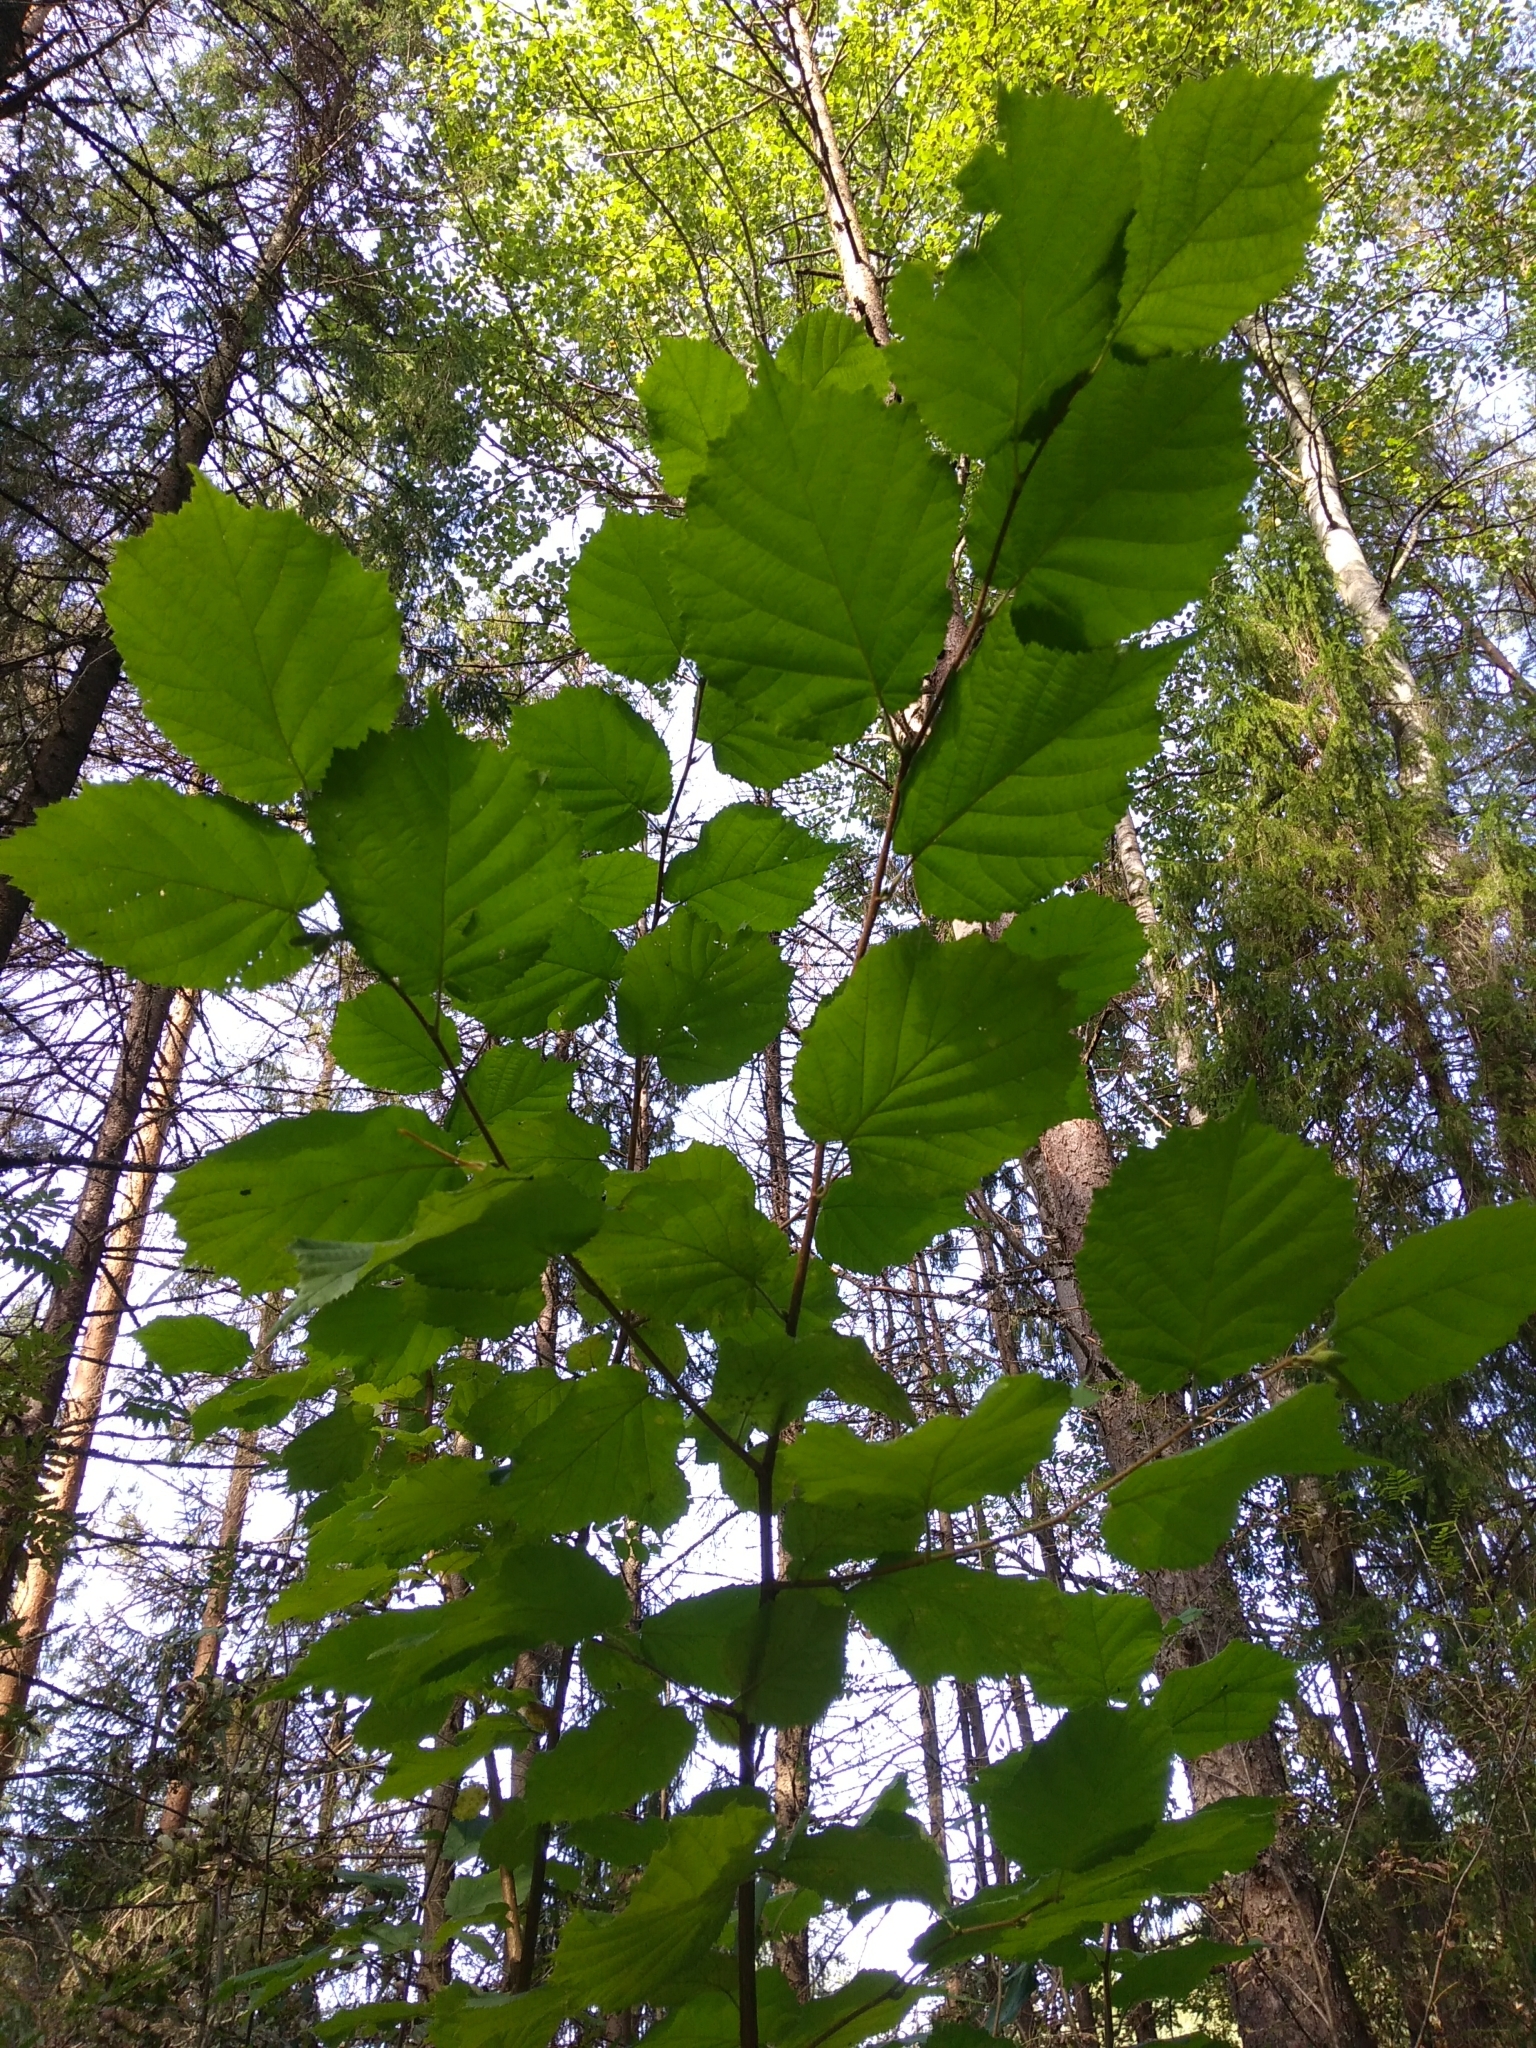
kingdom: Plantae
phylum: Tracheophyta
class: Magnoliopsida
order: Fagales
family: Betulaceae
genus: Corylus
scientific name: Corylus avellana
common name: European hazel
